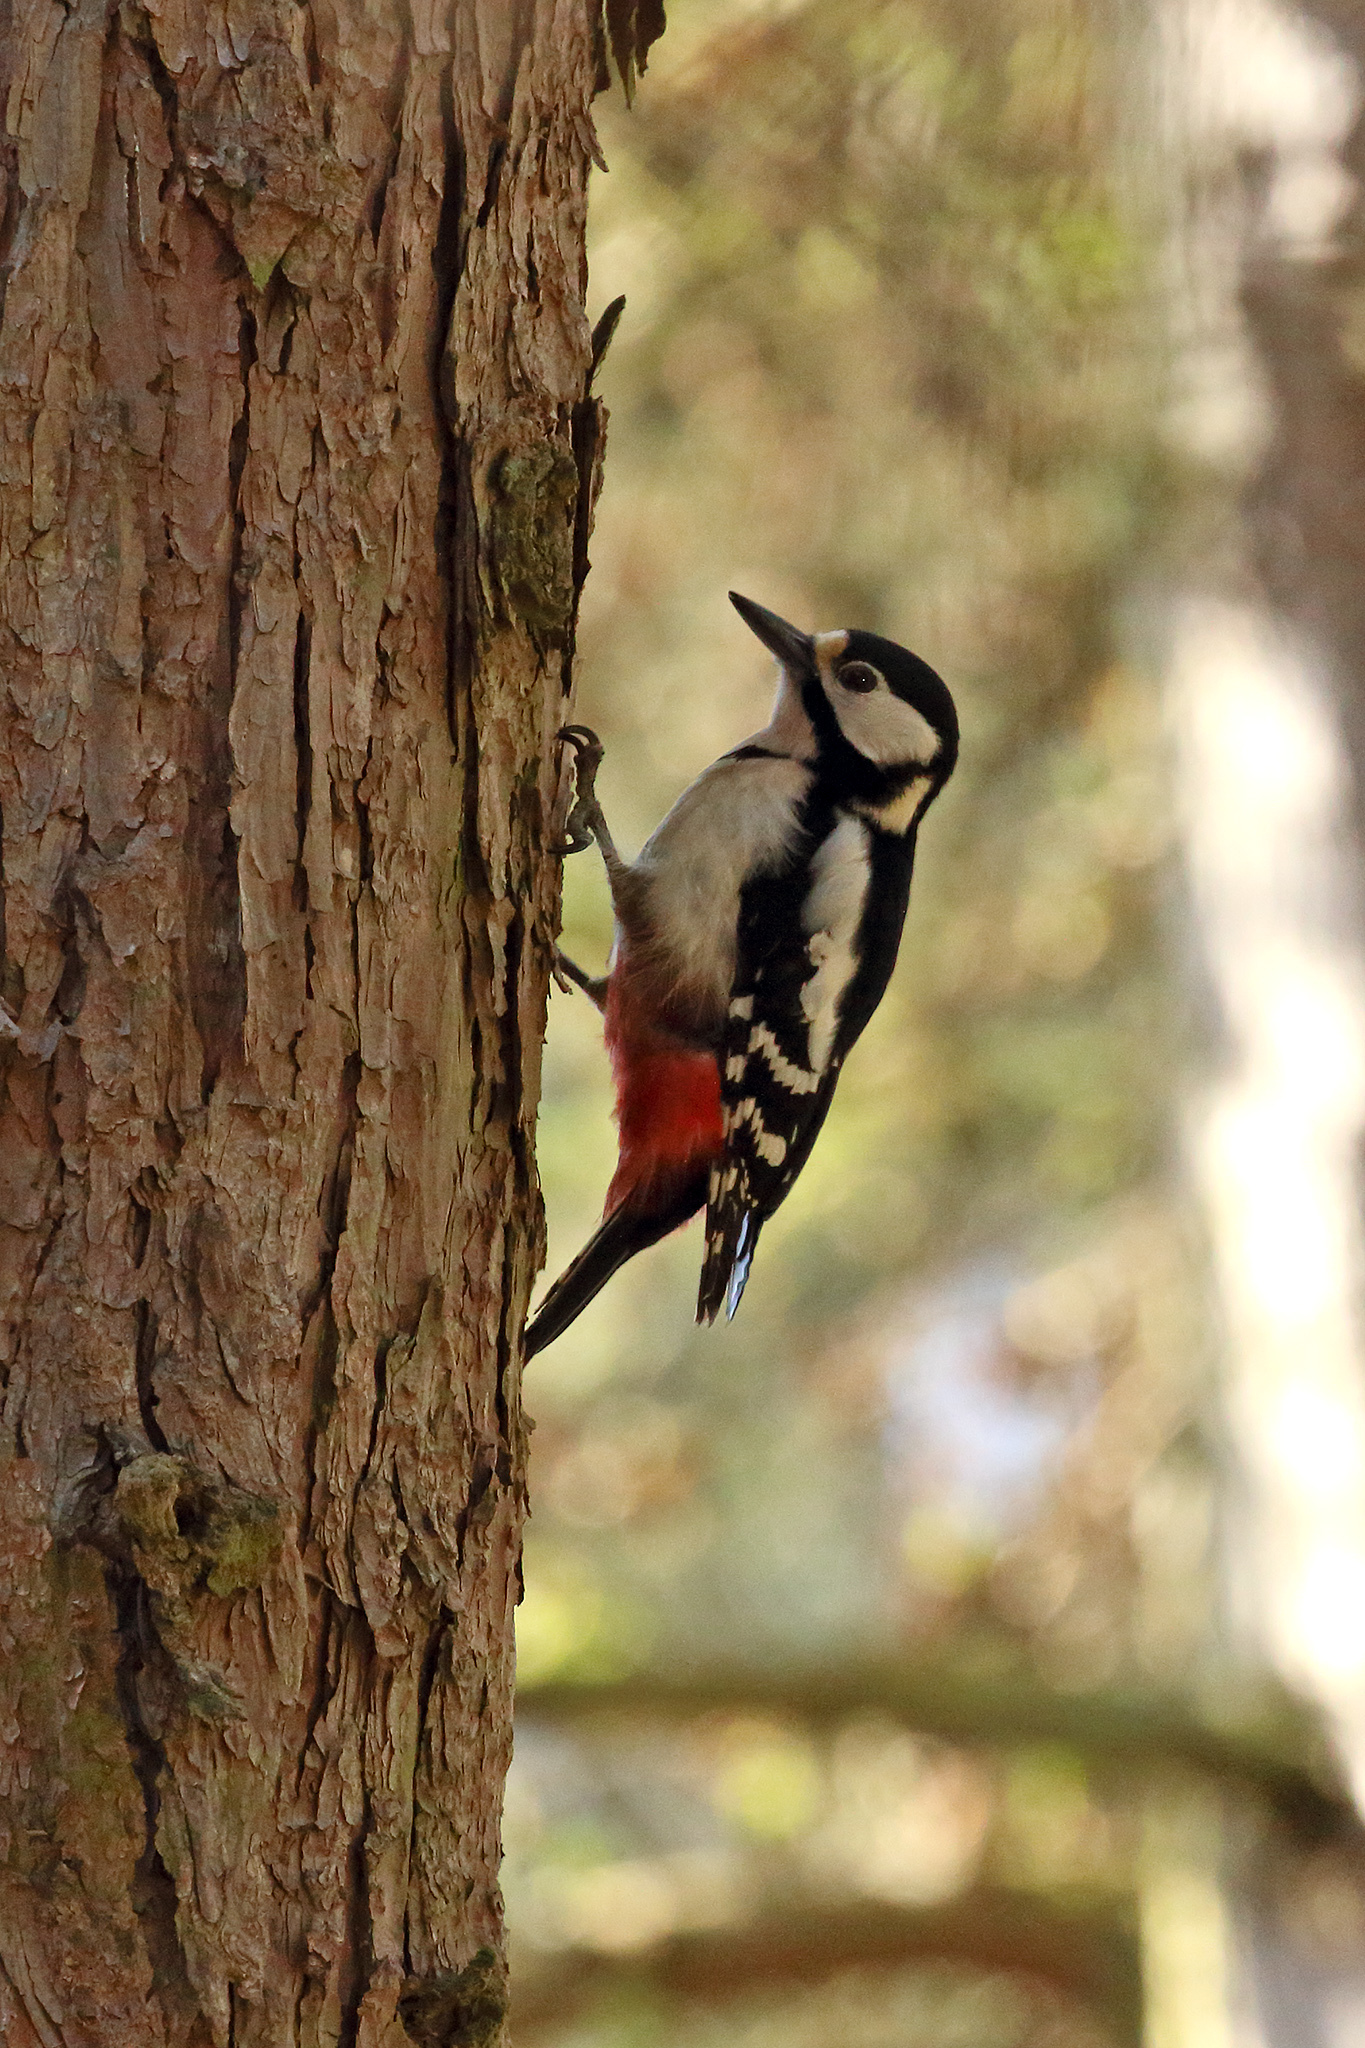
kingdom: Animalia
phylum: Chordata
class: Aves
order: Piciformes
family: Picidae
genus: Dendrocopos
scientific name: Dendrocopos major
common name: Great spotted woodpecker
